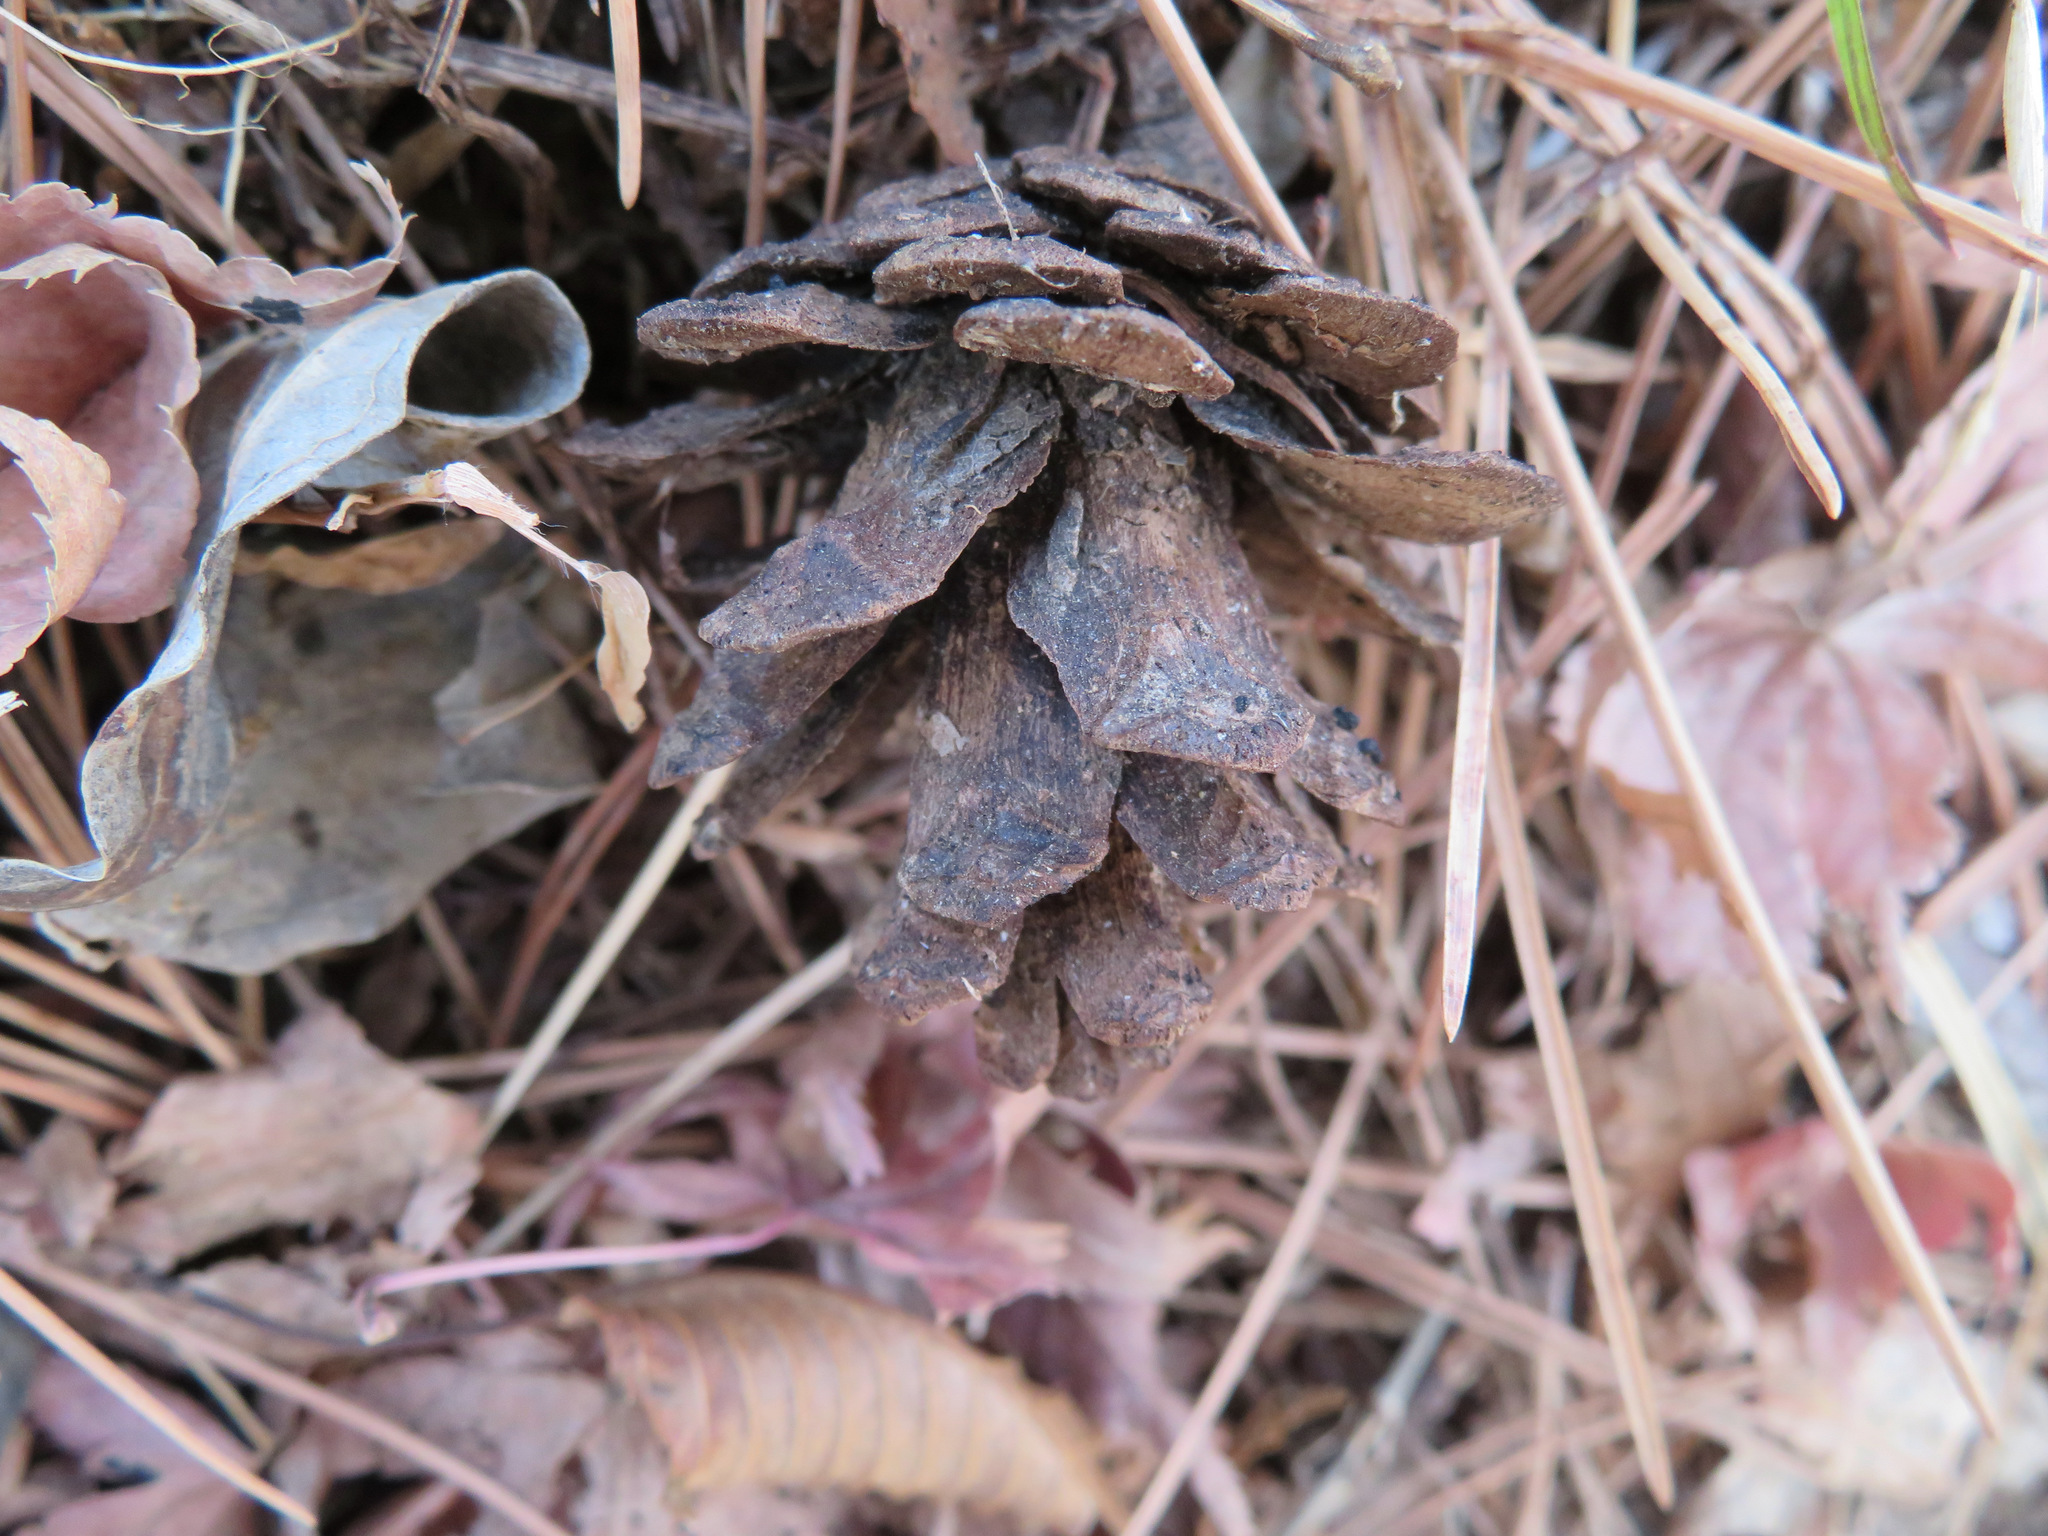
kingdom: Plantae
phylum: Tracheophyta
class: Pinopsida
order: Pinales
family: Pinaceae
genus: Pinus
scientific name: Pinus densiflora
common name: Japanese red pine
